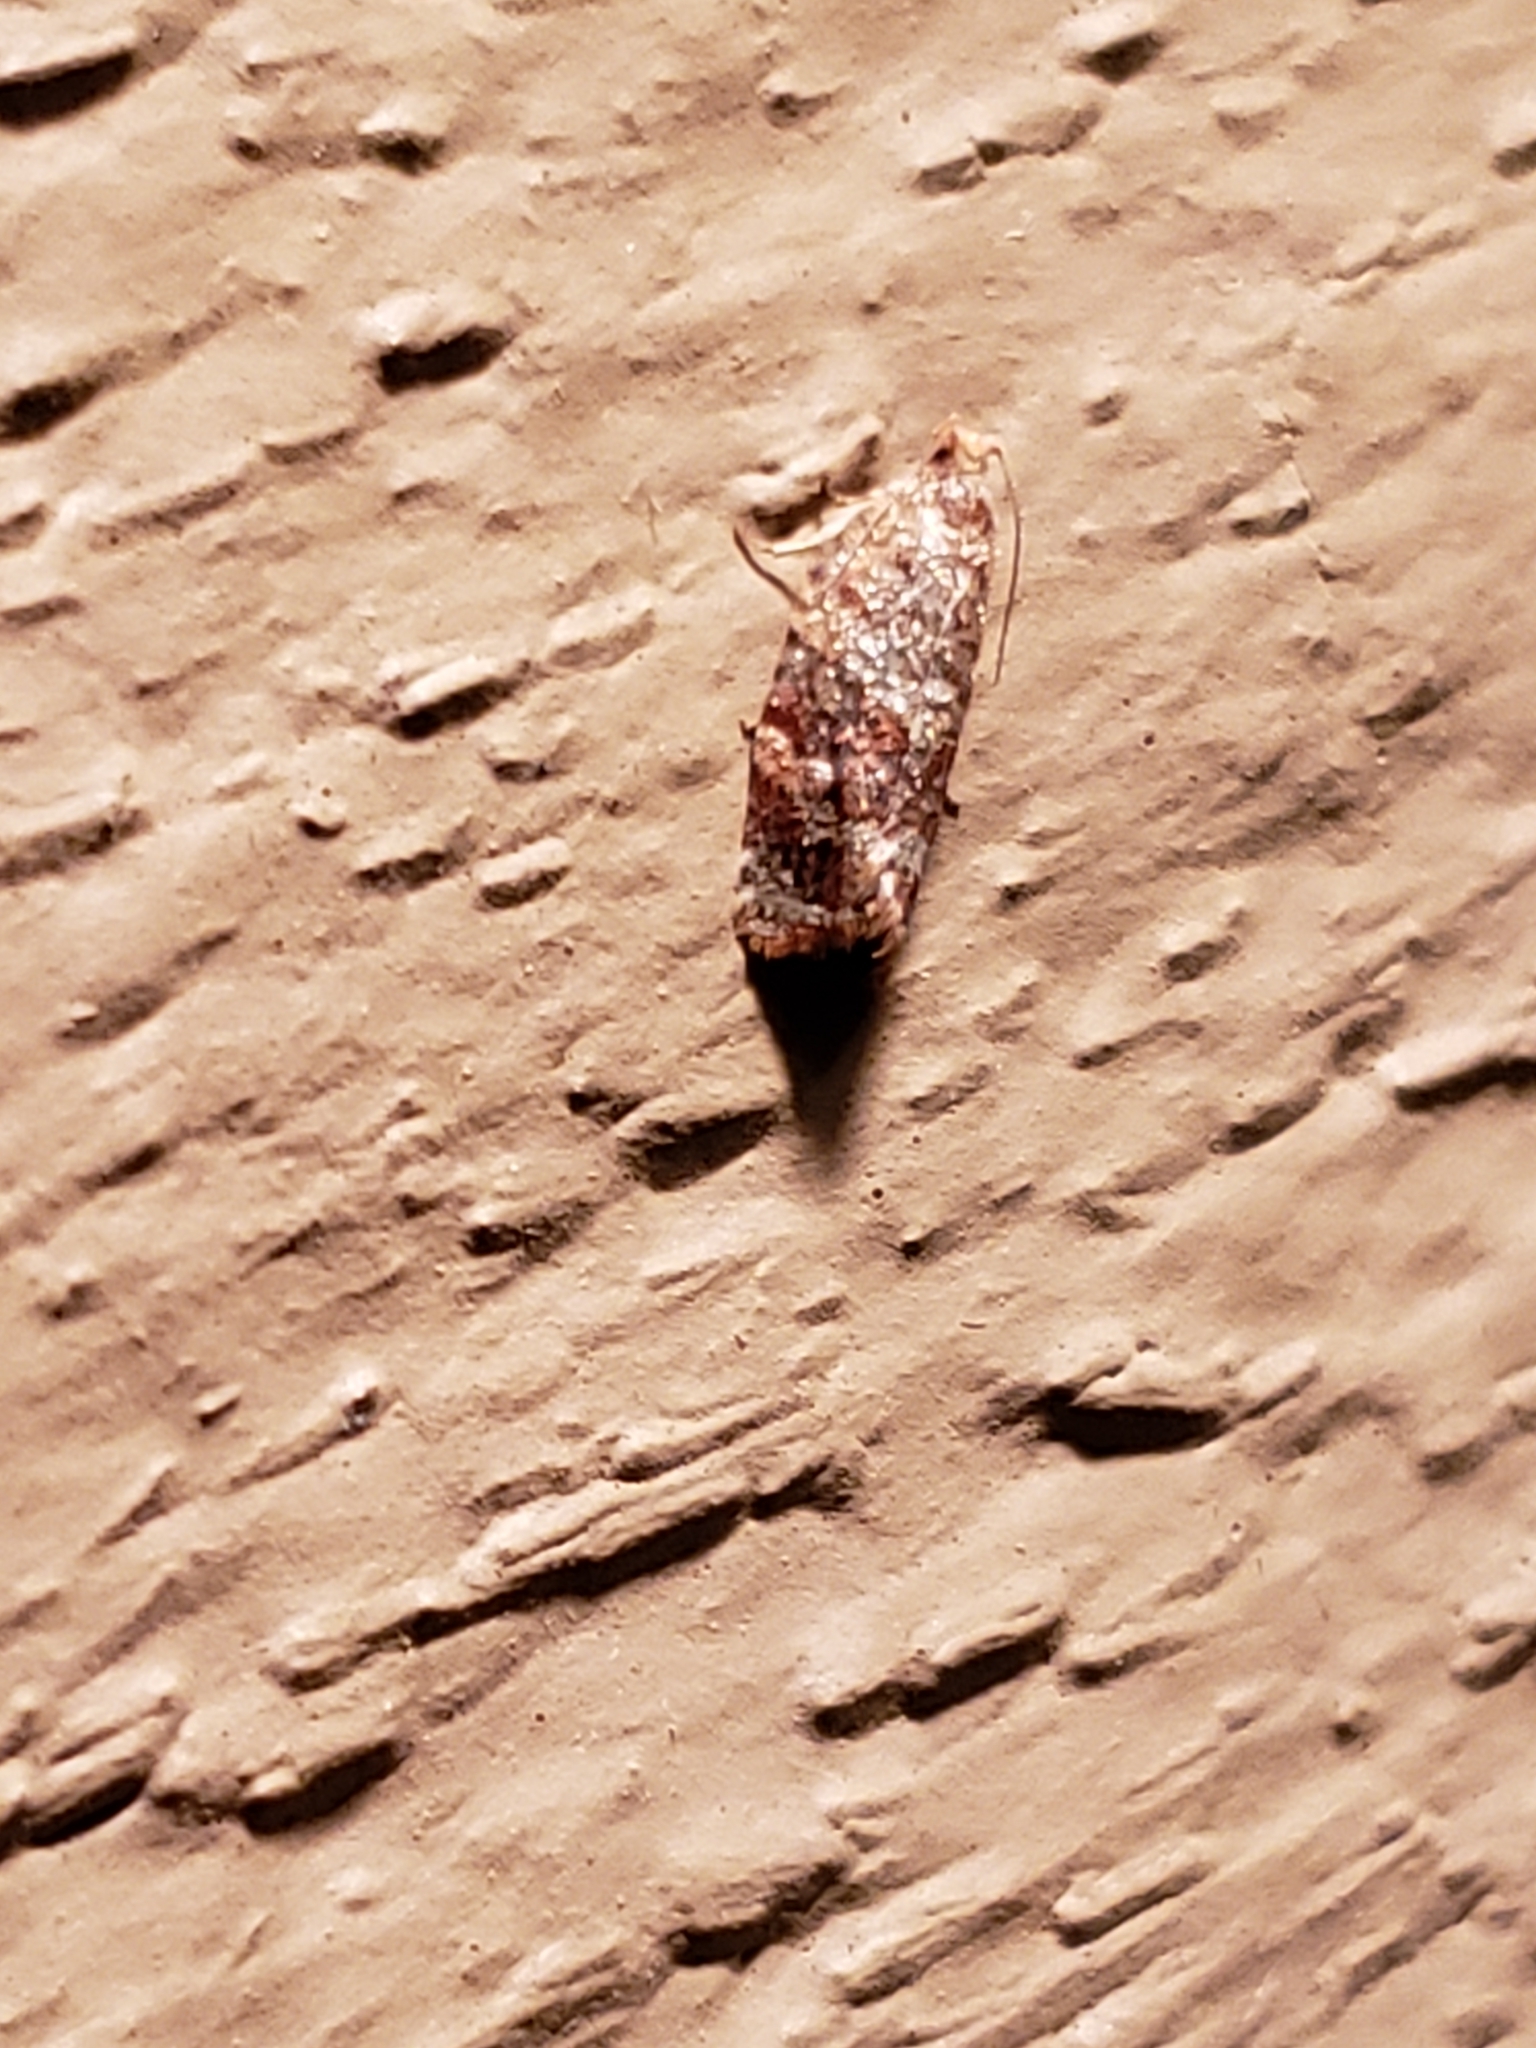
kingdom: Animalia
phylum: Arthropoda
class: Insecta
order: Lepidoptera
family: Tortricidae
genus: Argyrotaenia
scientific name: Argyrotaenia velutinana
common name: Red-banded leafroller moth
